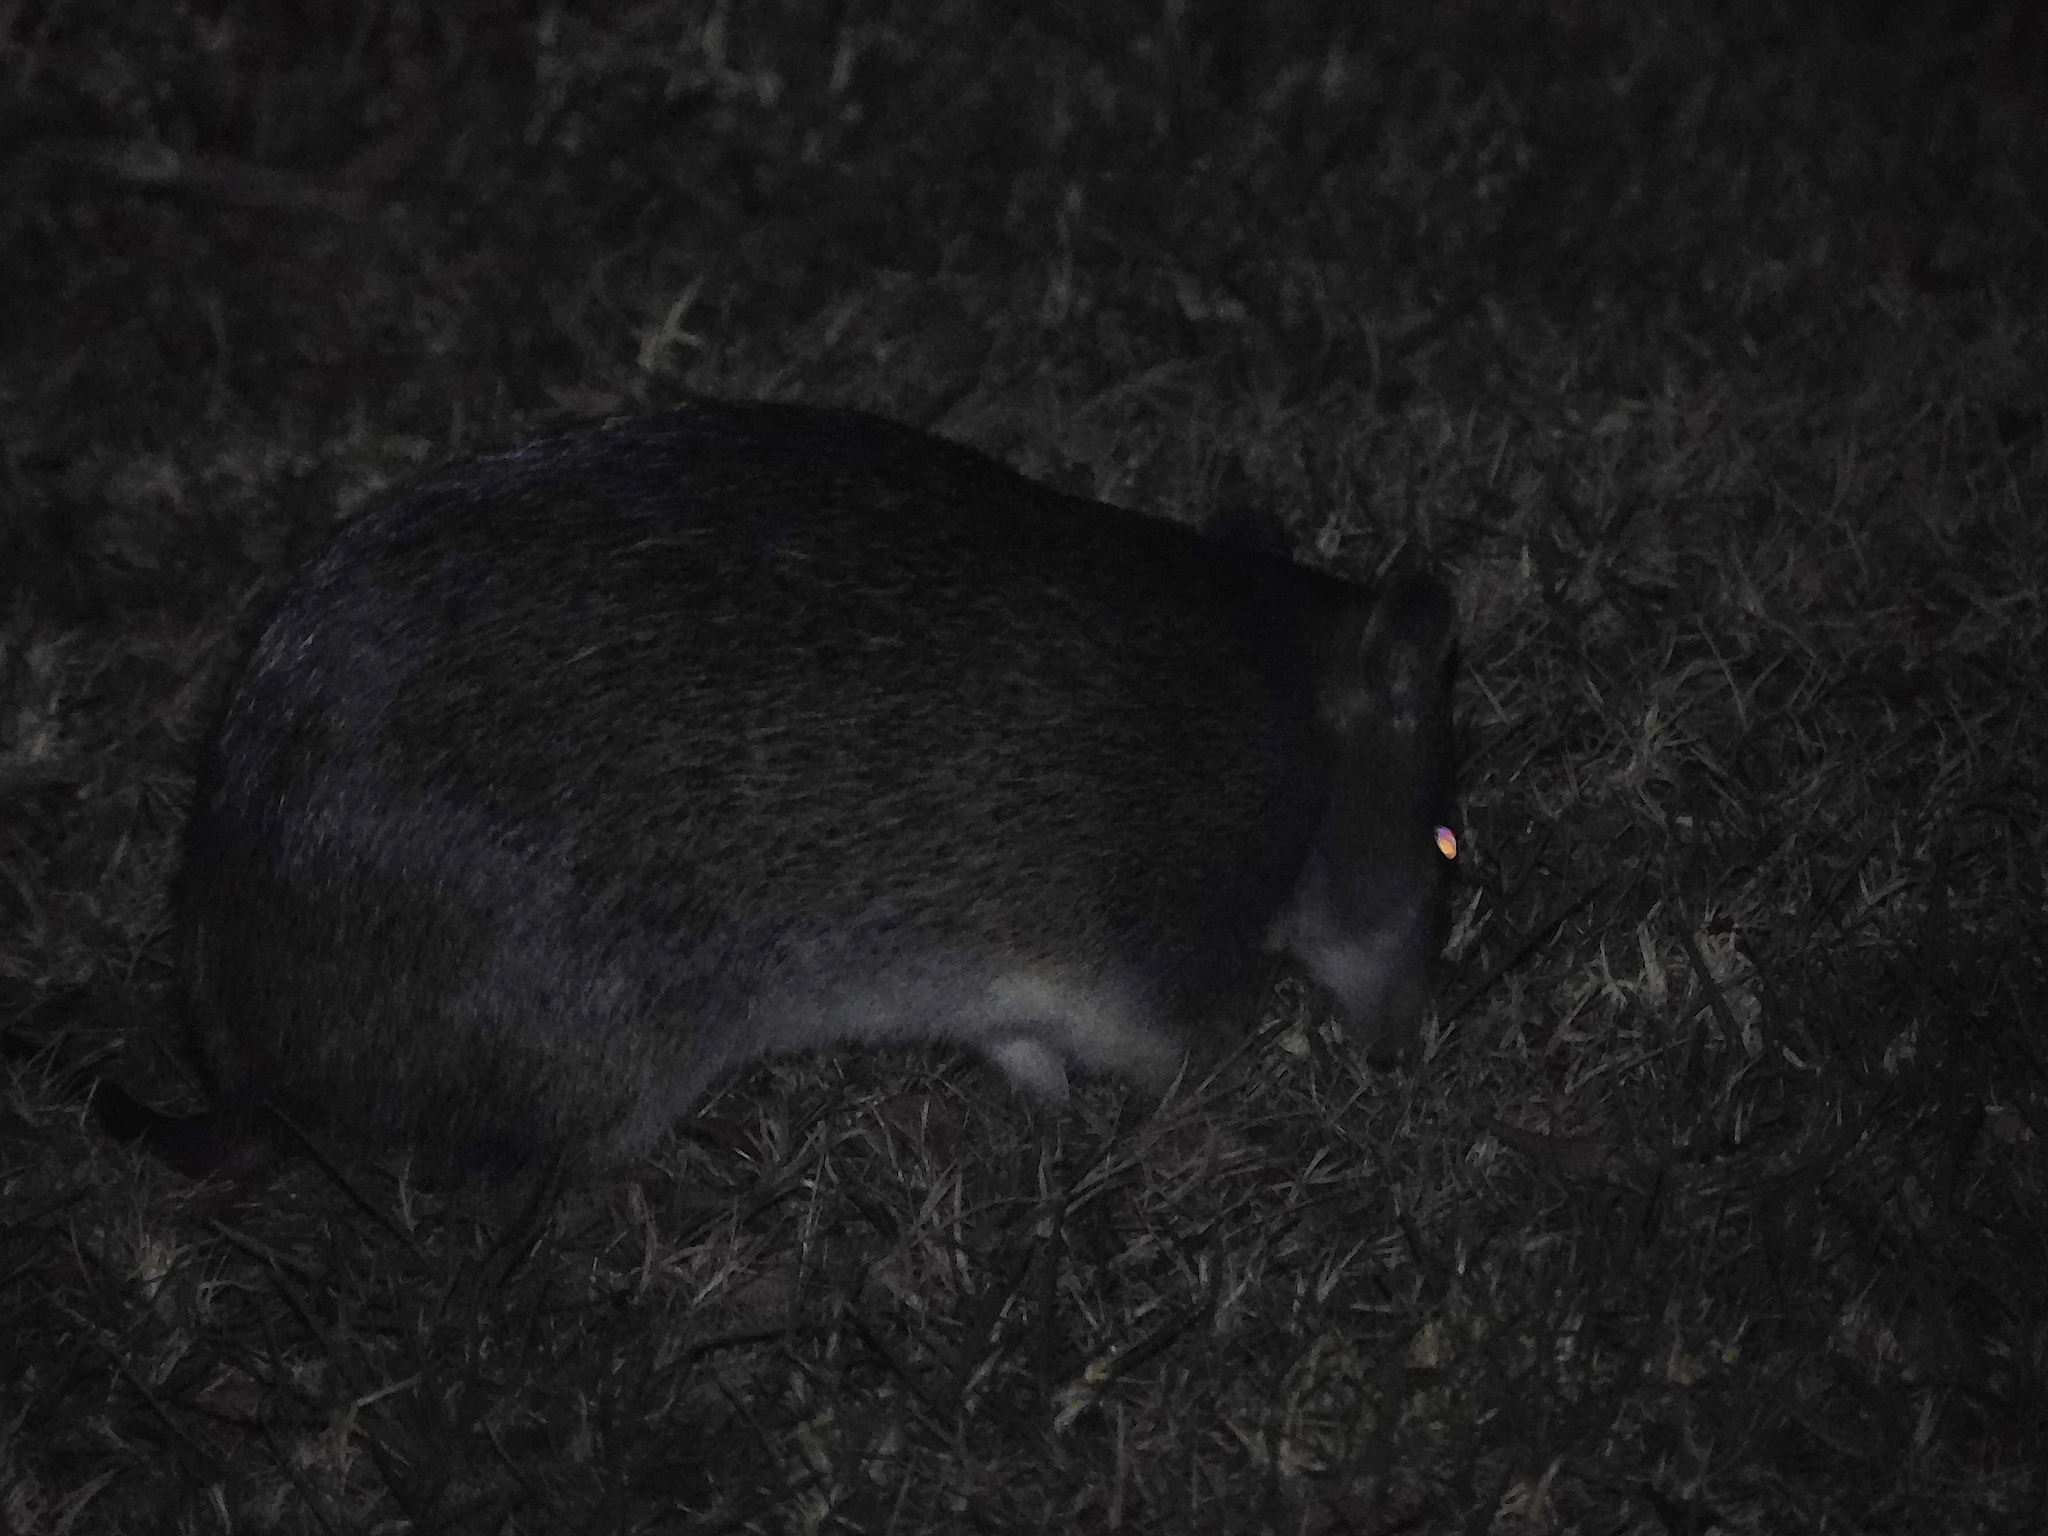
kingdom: Animalia
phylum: Chordata
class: Mammalia
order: Peramelemorphia
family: Peramelidae
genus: Isoodon
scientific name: Isoodon obesulus
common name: Southern brown bandicoot
